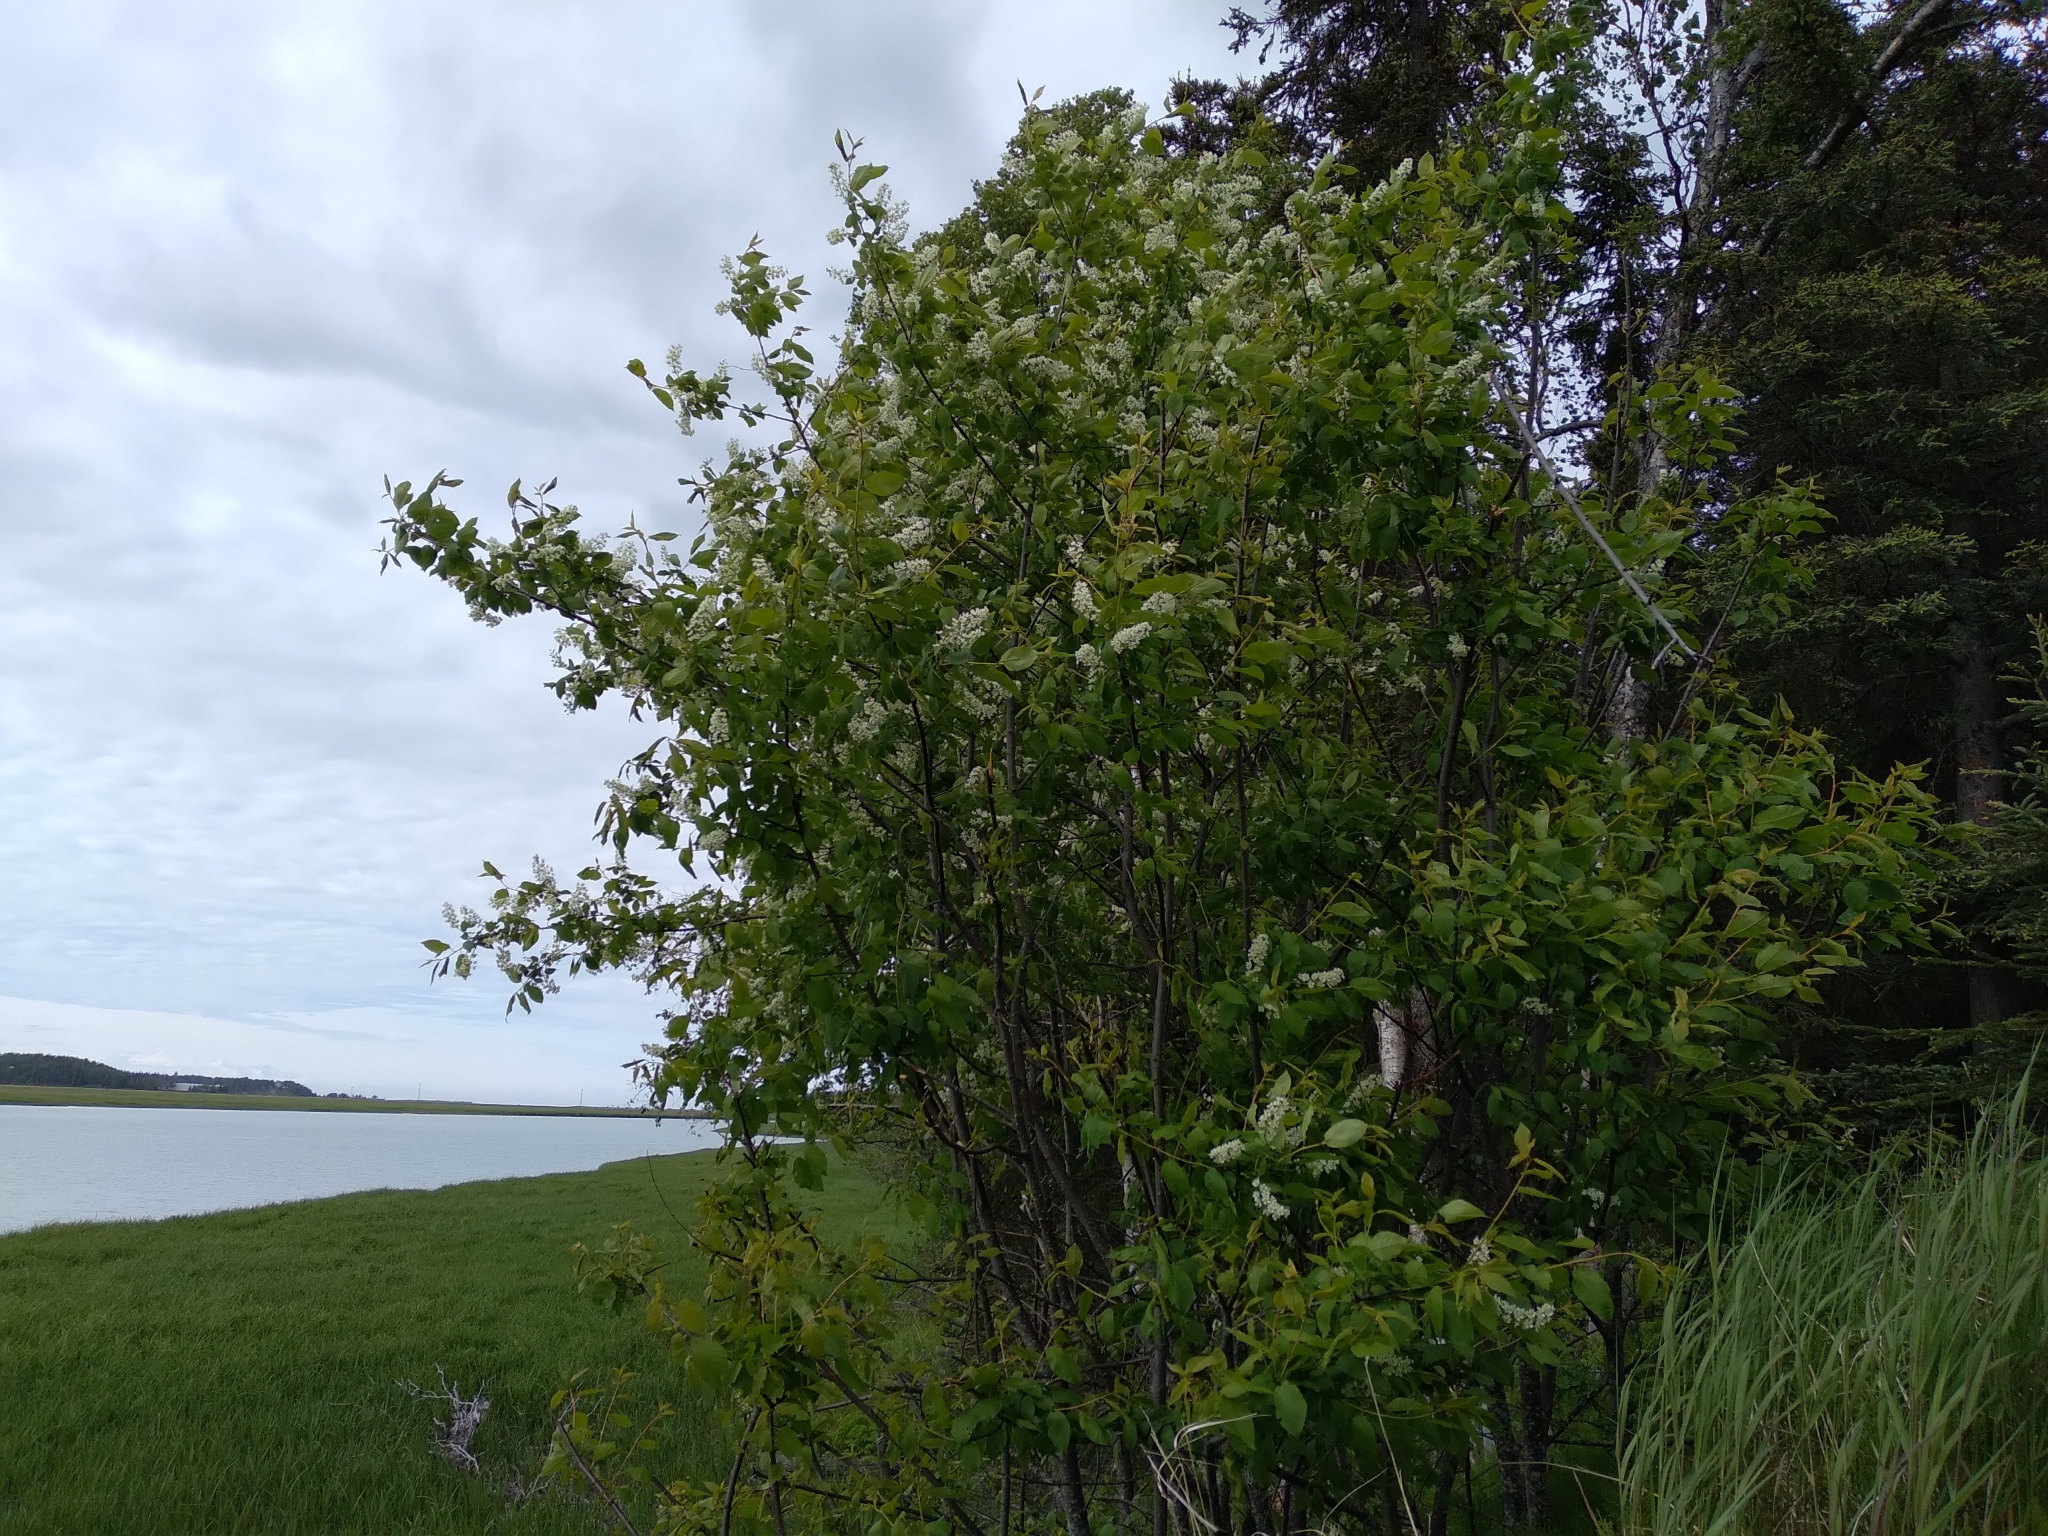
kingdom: Plantae
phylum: Tracheophyta
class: Magnoliopsida
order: Rosales
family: Rosaceae
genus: Prunus
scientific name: Prunus padus
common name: Bird cherry
